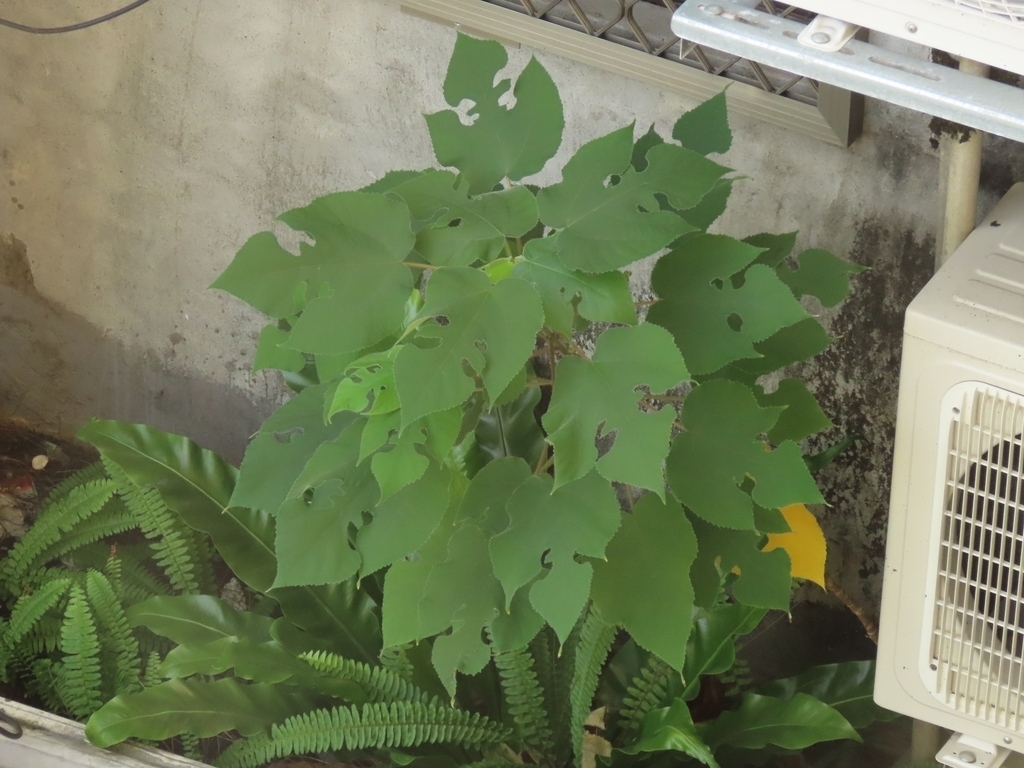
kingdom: Plantae
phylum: Tracheophyta
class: Magnoliopsida
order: Rosales
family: Moraceae
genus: Broussonetia
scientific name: Broussonetia papyrifera
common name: Paper mulberry
